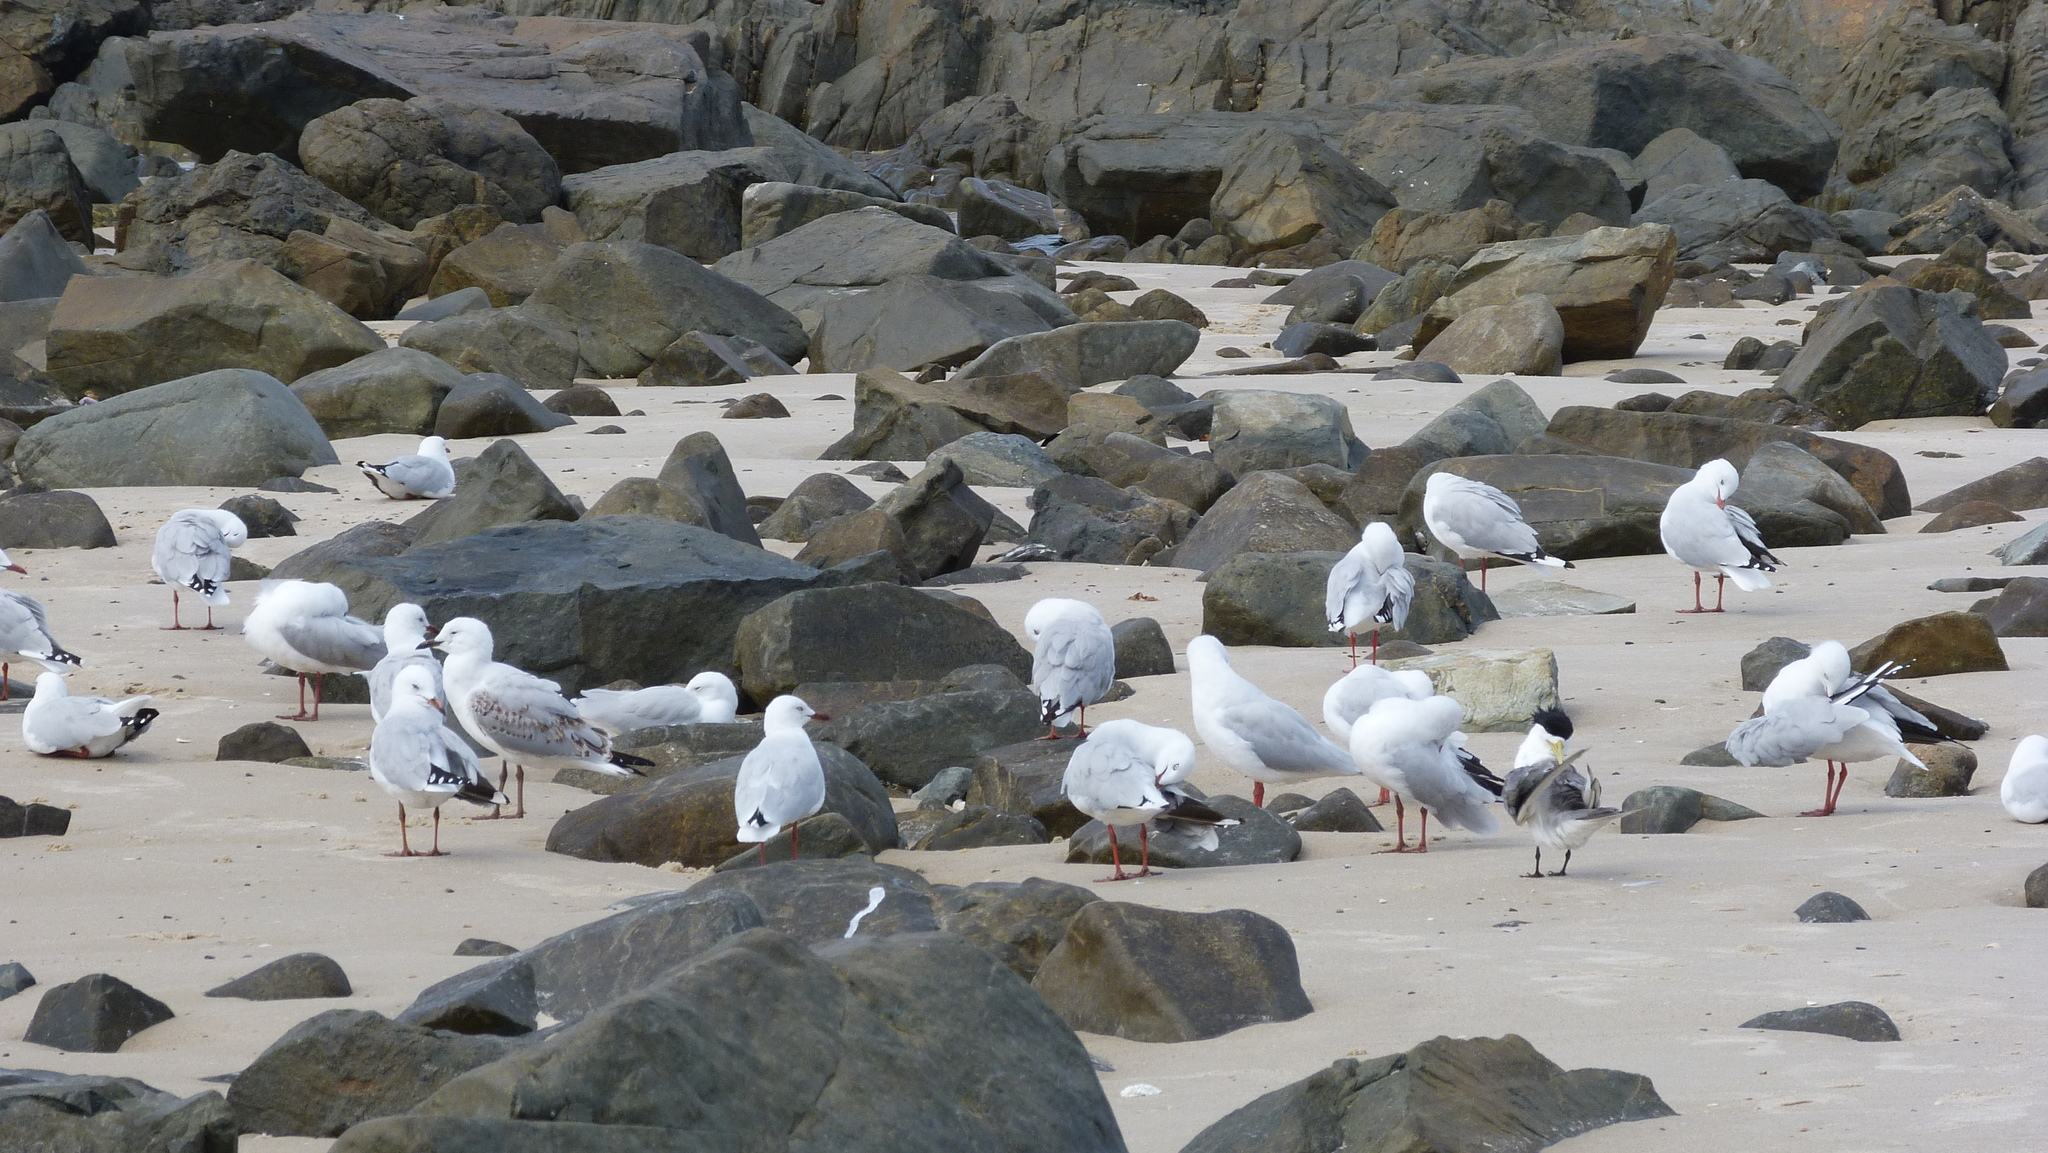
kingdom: Animalia
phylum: Chordata
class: Aves
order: Charadriiformes
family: Laridae
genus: Chroicocephalus
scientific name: Chroicocephalus novaehollandiae
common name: Silver gull
